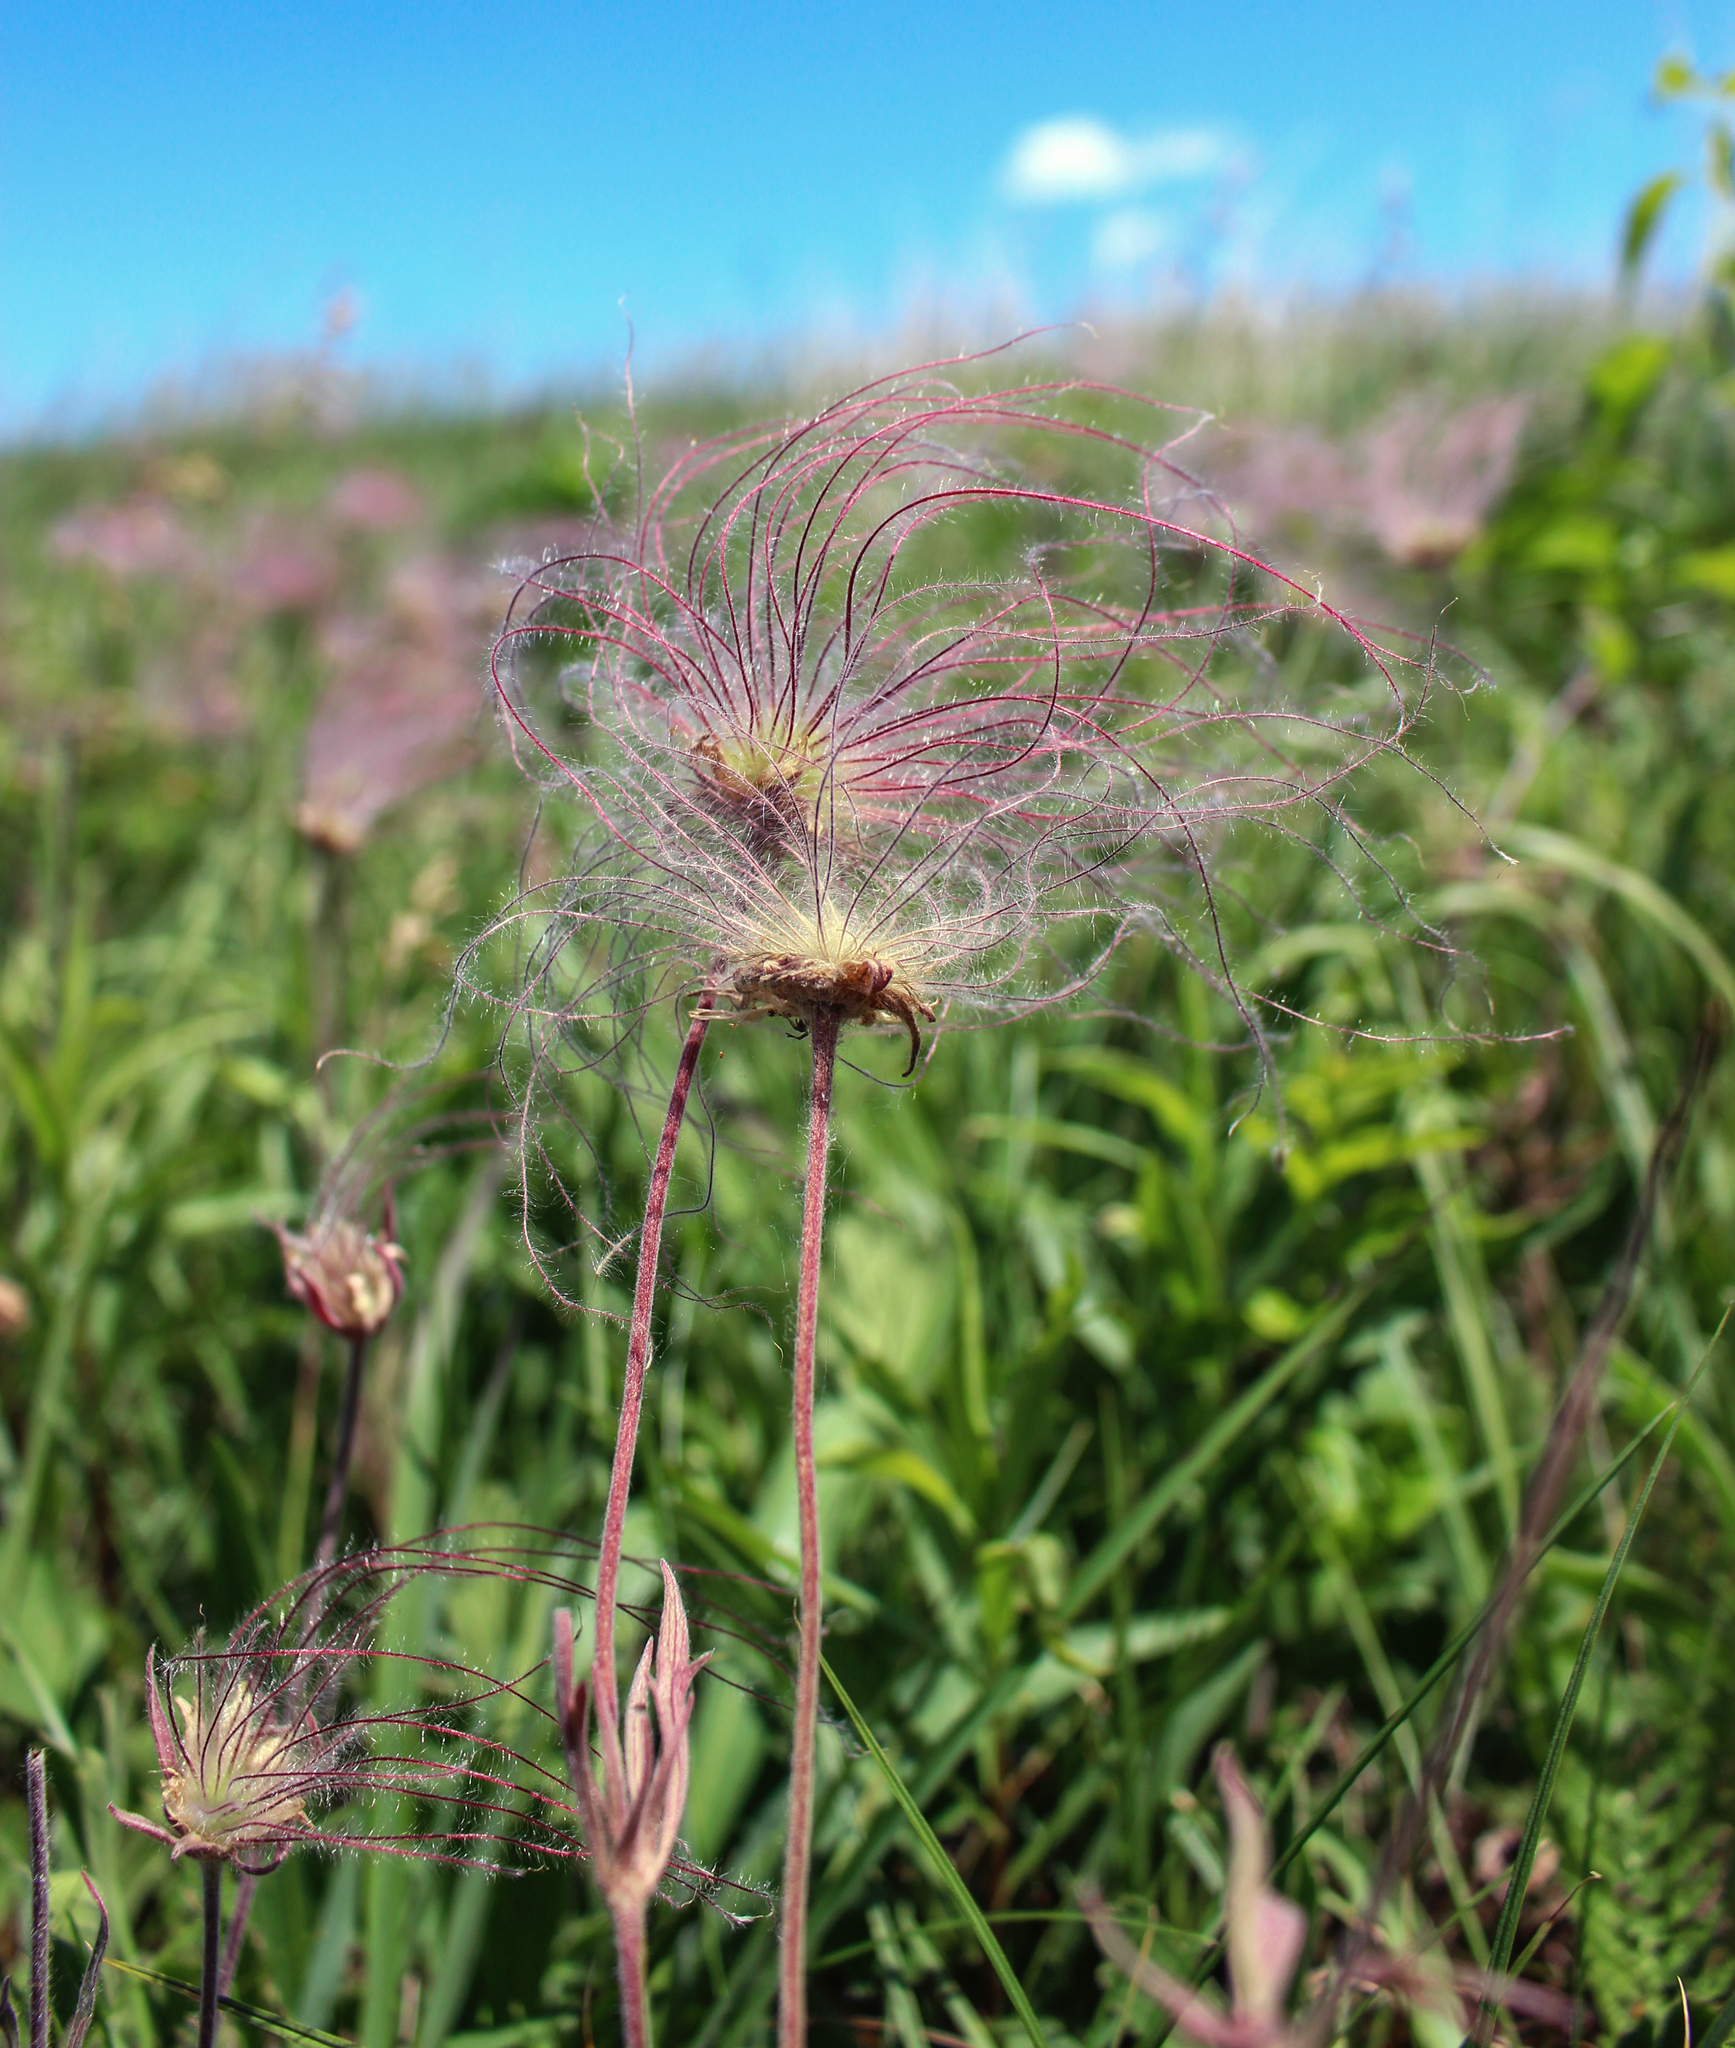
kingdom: Plantae
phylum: Tracheophyta
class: Magnoliopsida
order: Rosales
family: Rosaceae
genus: Geum
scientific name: Geum triflorum
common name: Old man's whiskers
